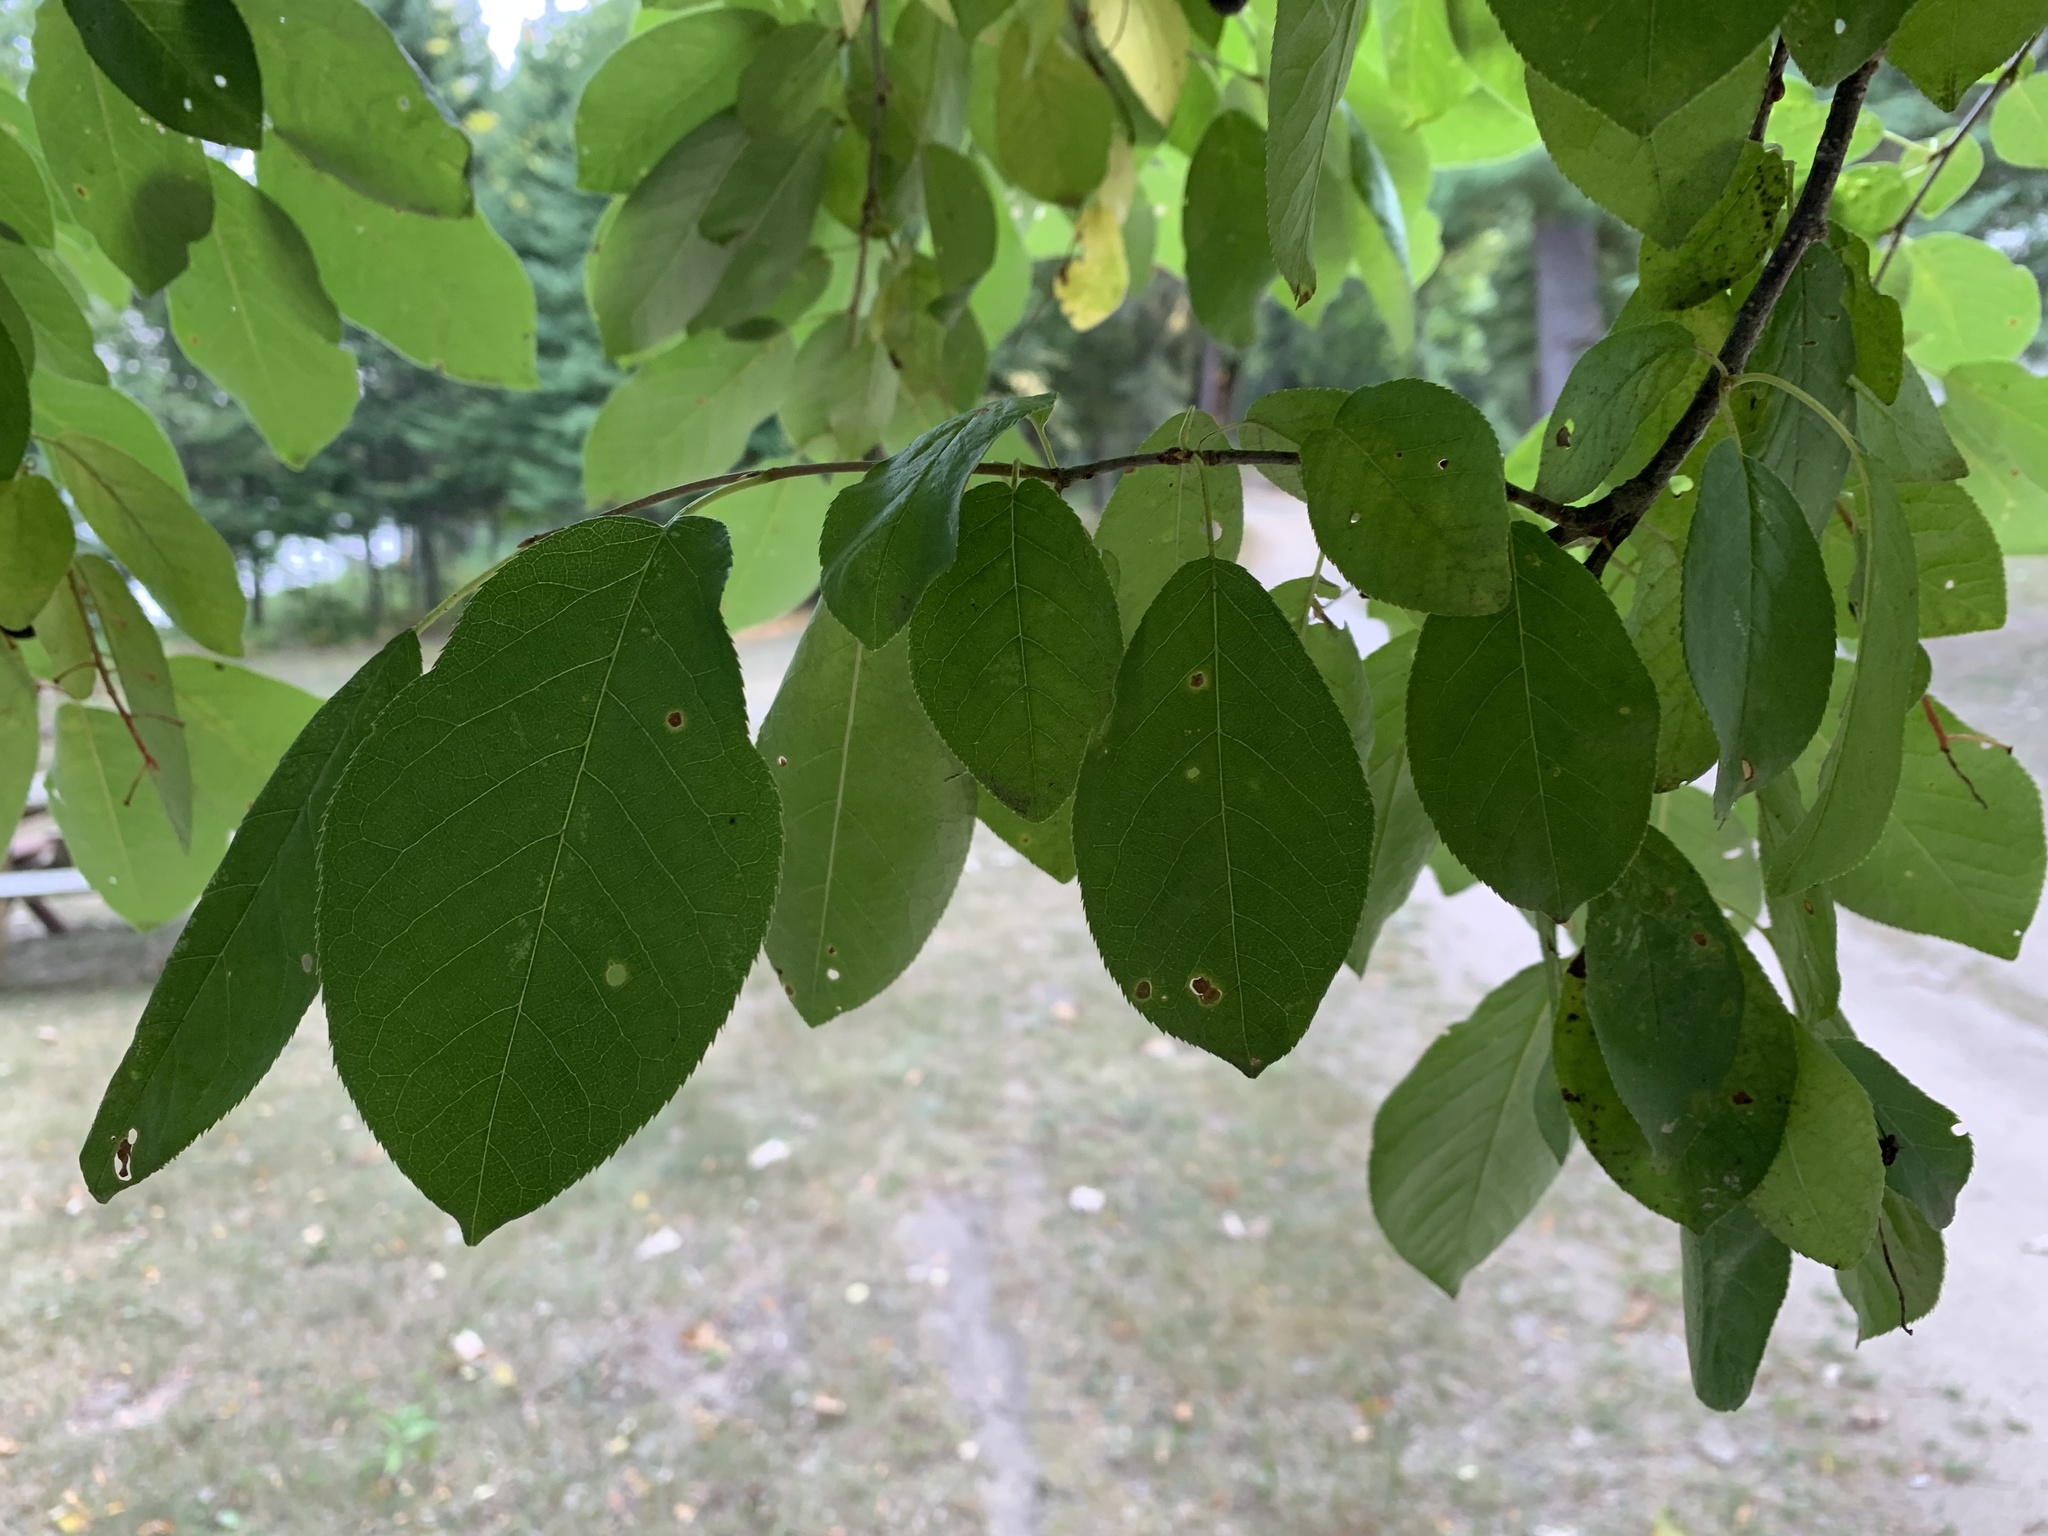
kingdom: Animalia
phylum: Arthropoda
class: Arachnida
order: Trombidiformes
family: Eriophyidae
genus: Eriophyes
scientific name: Eriophyes emarginatae
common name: Plum leaf gall mite
